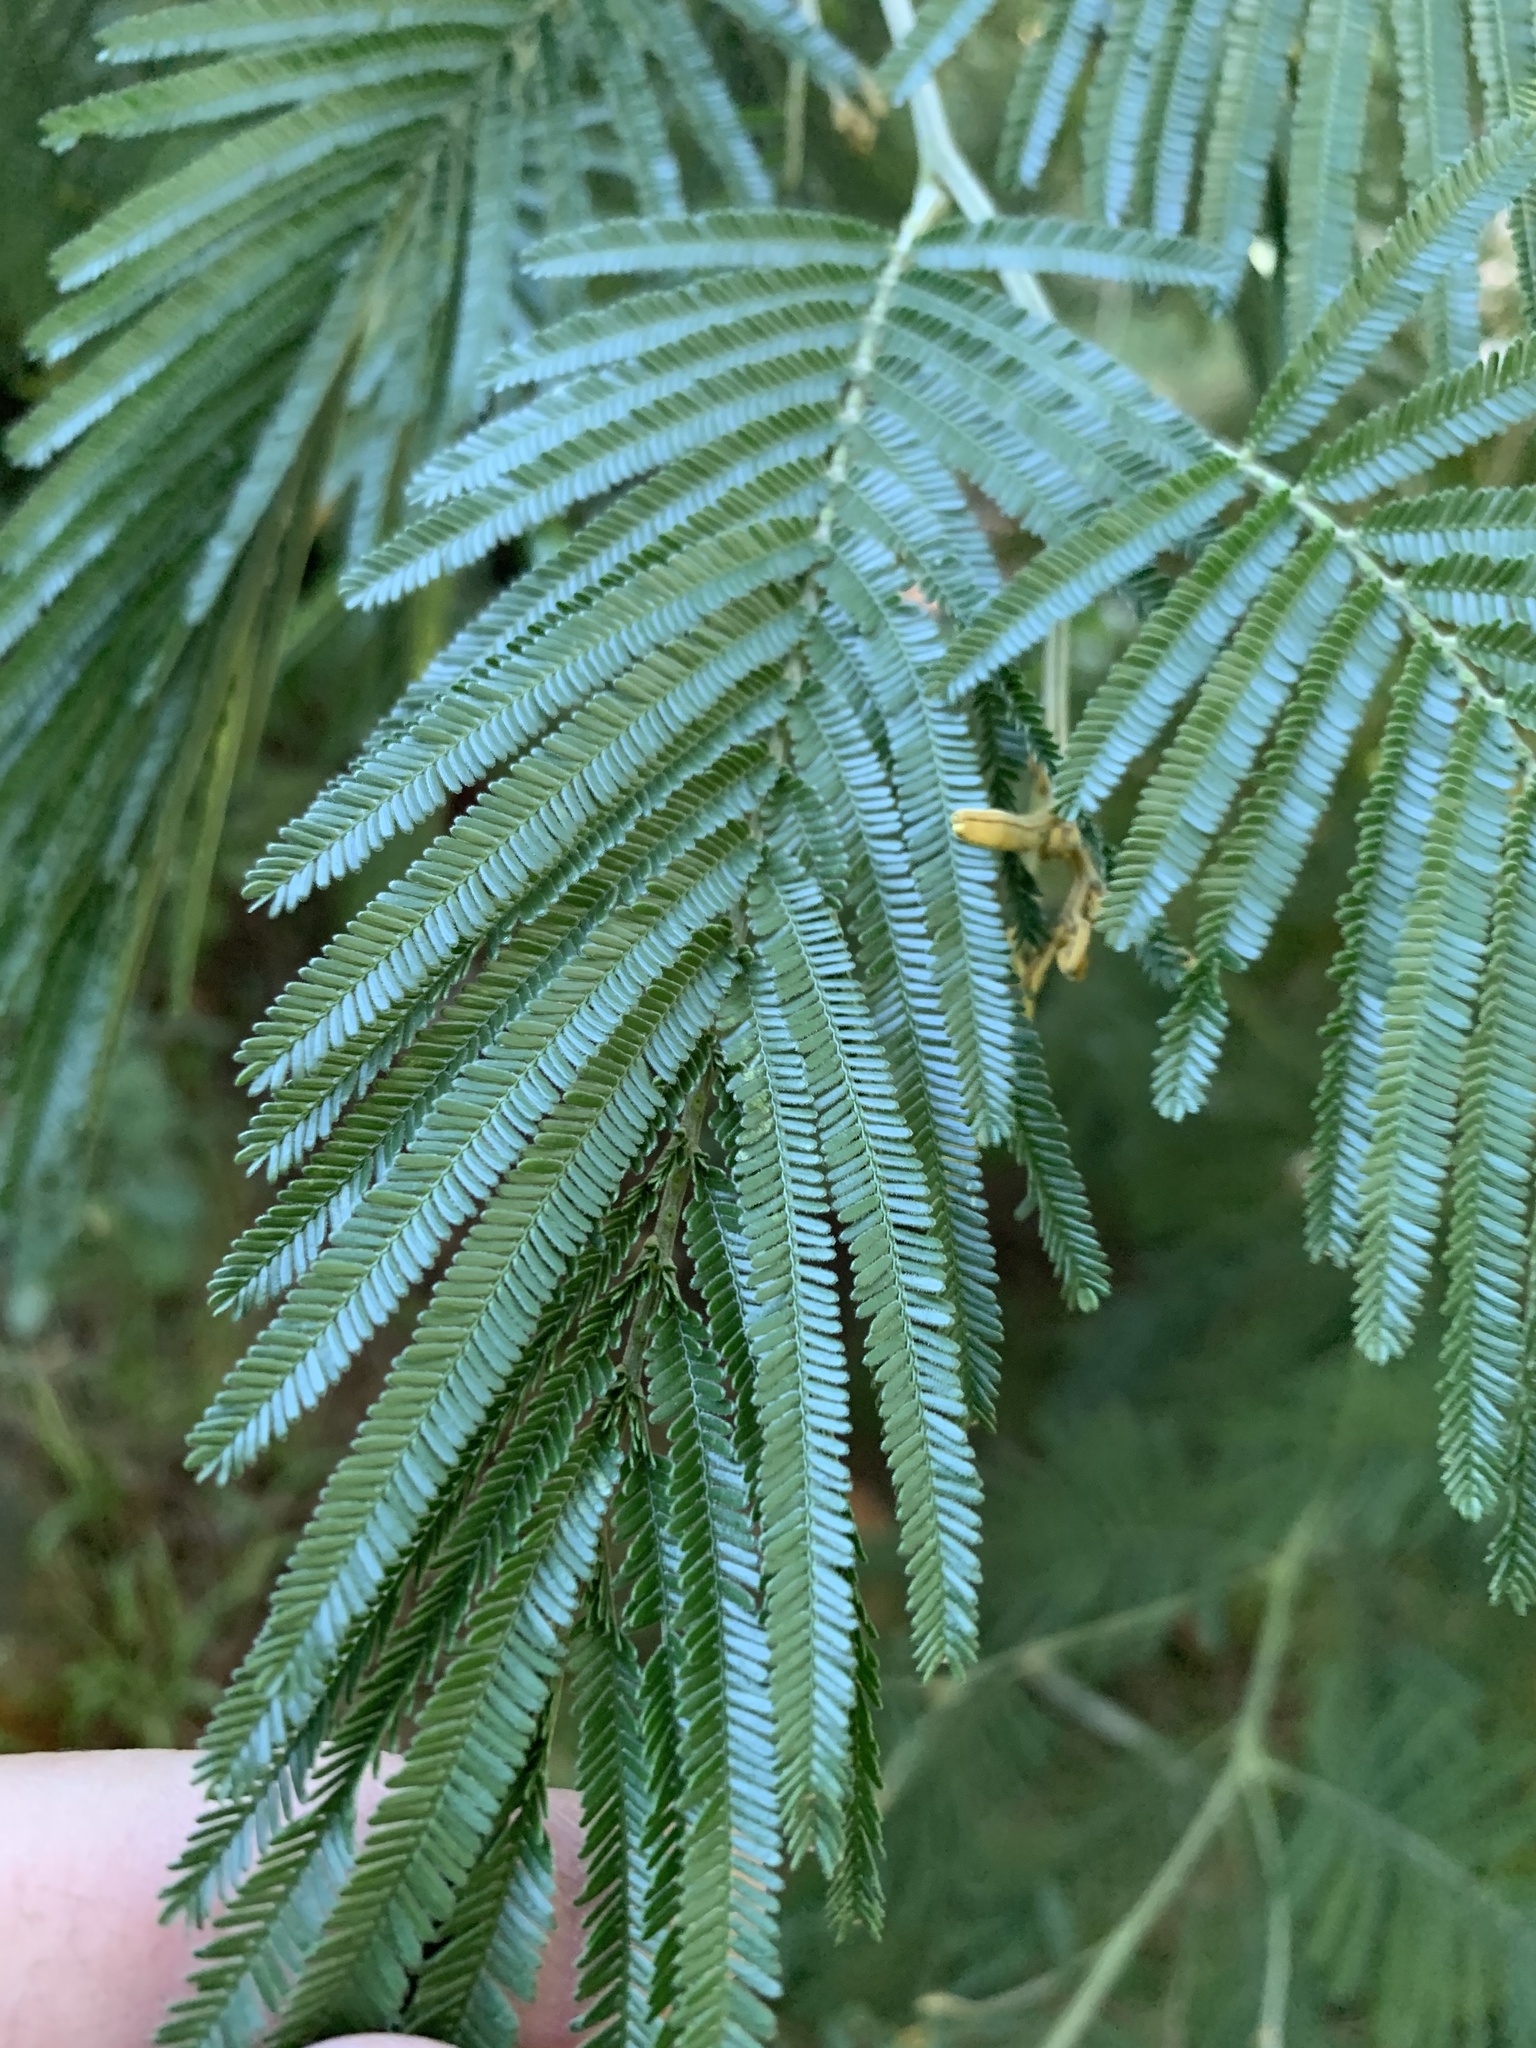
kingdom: Plantae
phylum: Tracheophyta
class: Magnoliopsida
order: Fabales
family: Fabaceae
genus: Acacia
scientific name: Acacia mearnsii
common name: Black wattle
